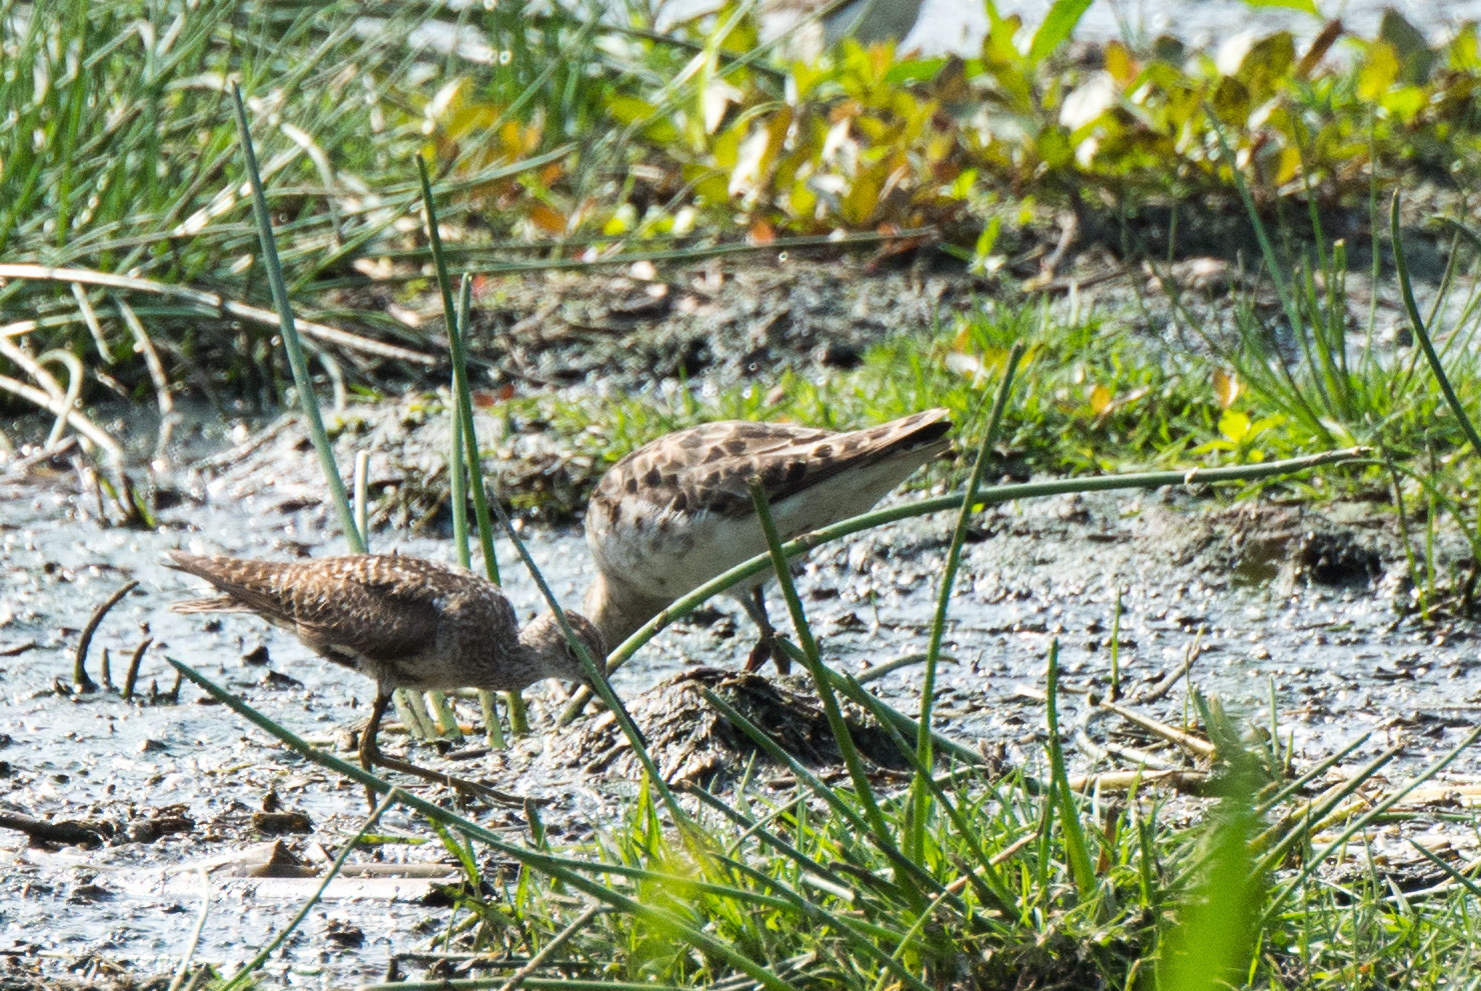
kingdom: Animalia
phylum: Chordata
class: Aves
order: Charadriiformes
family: Scolopacidae
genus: Calidris
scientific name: Calidris pugnax
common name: Ruff
